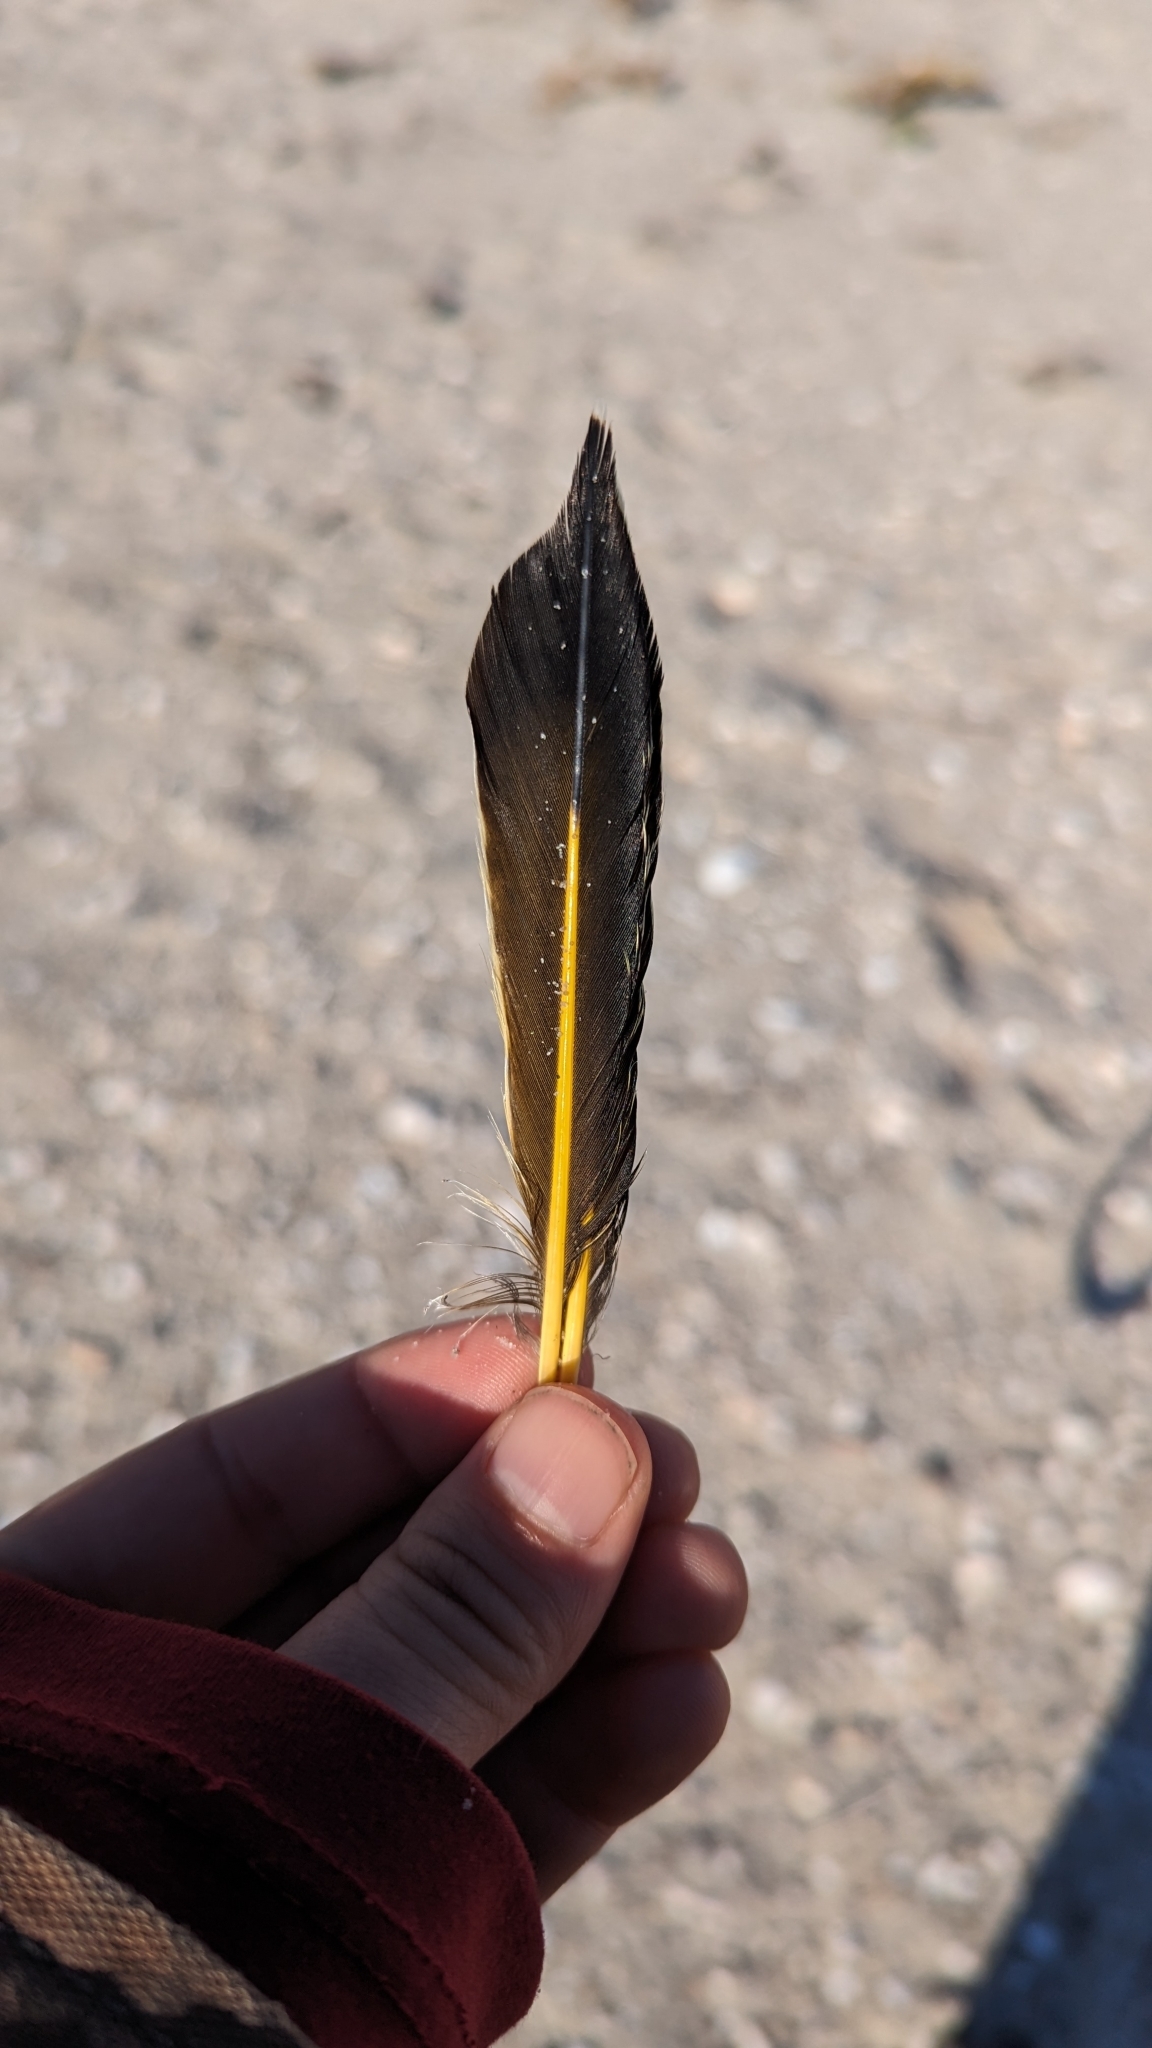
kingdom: Animalia
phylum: Chordata
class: Aves
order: Piciformes
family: Picidae
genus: Colaptes
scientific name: Colaptes auratus
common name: Northern flicker
